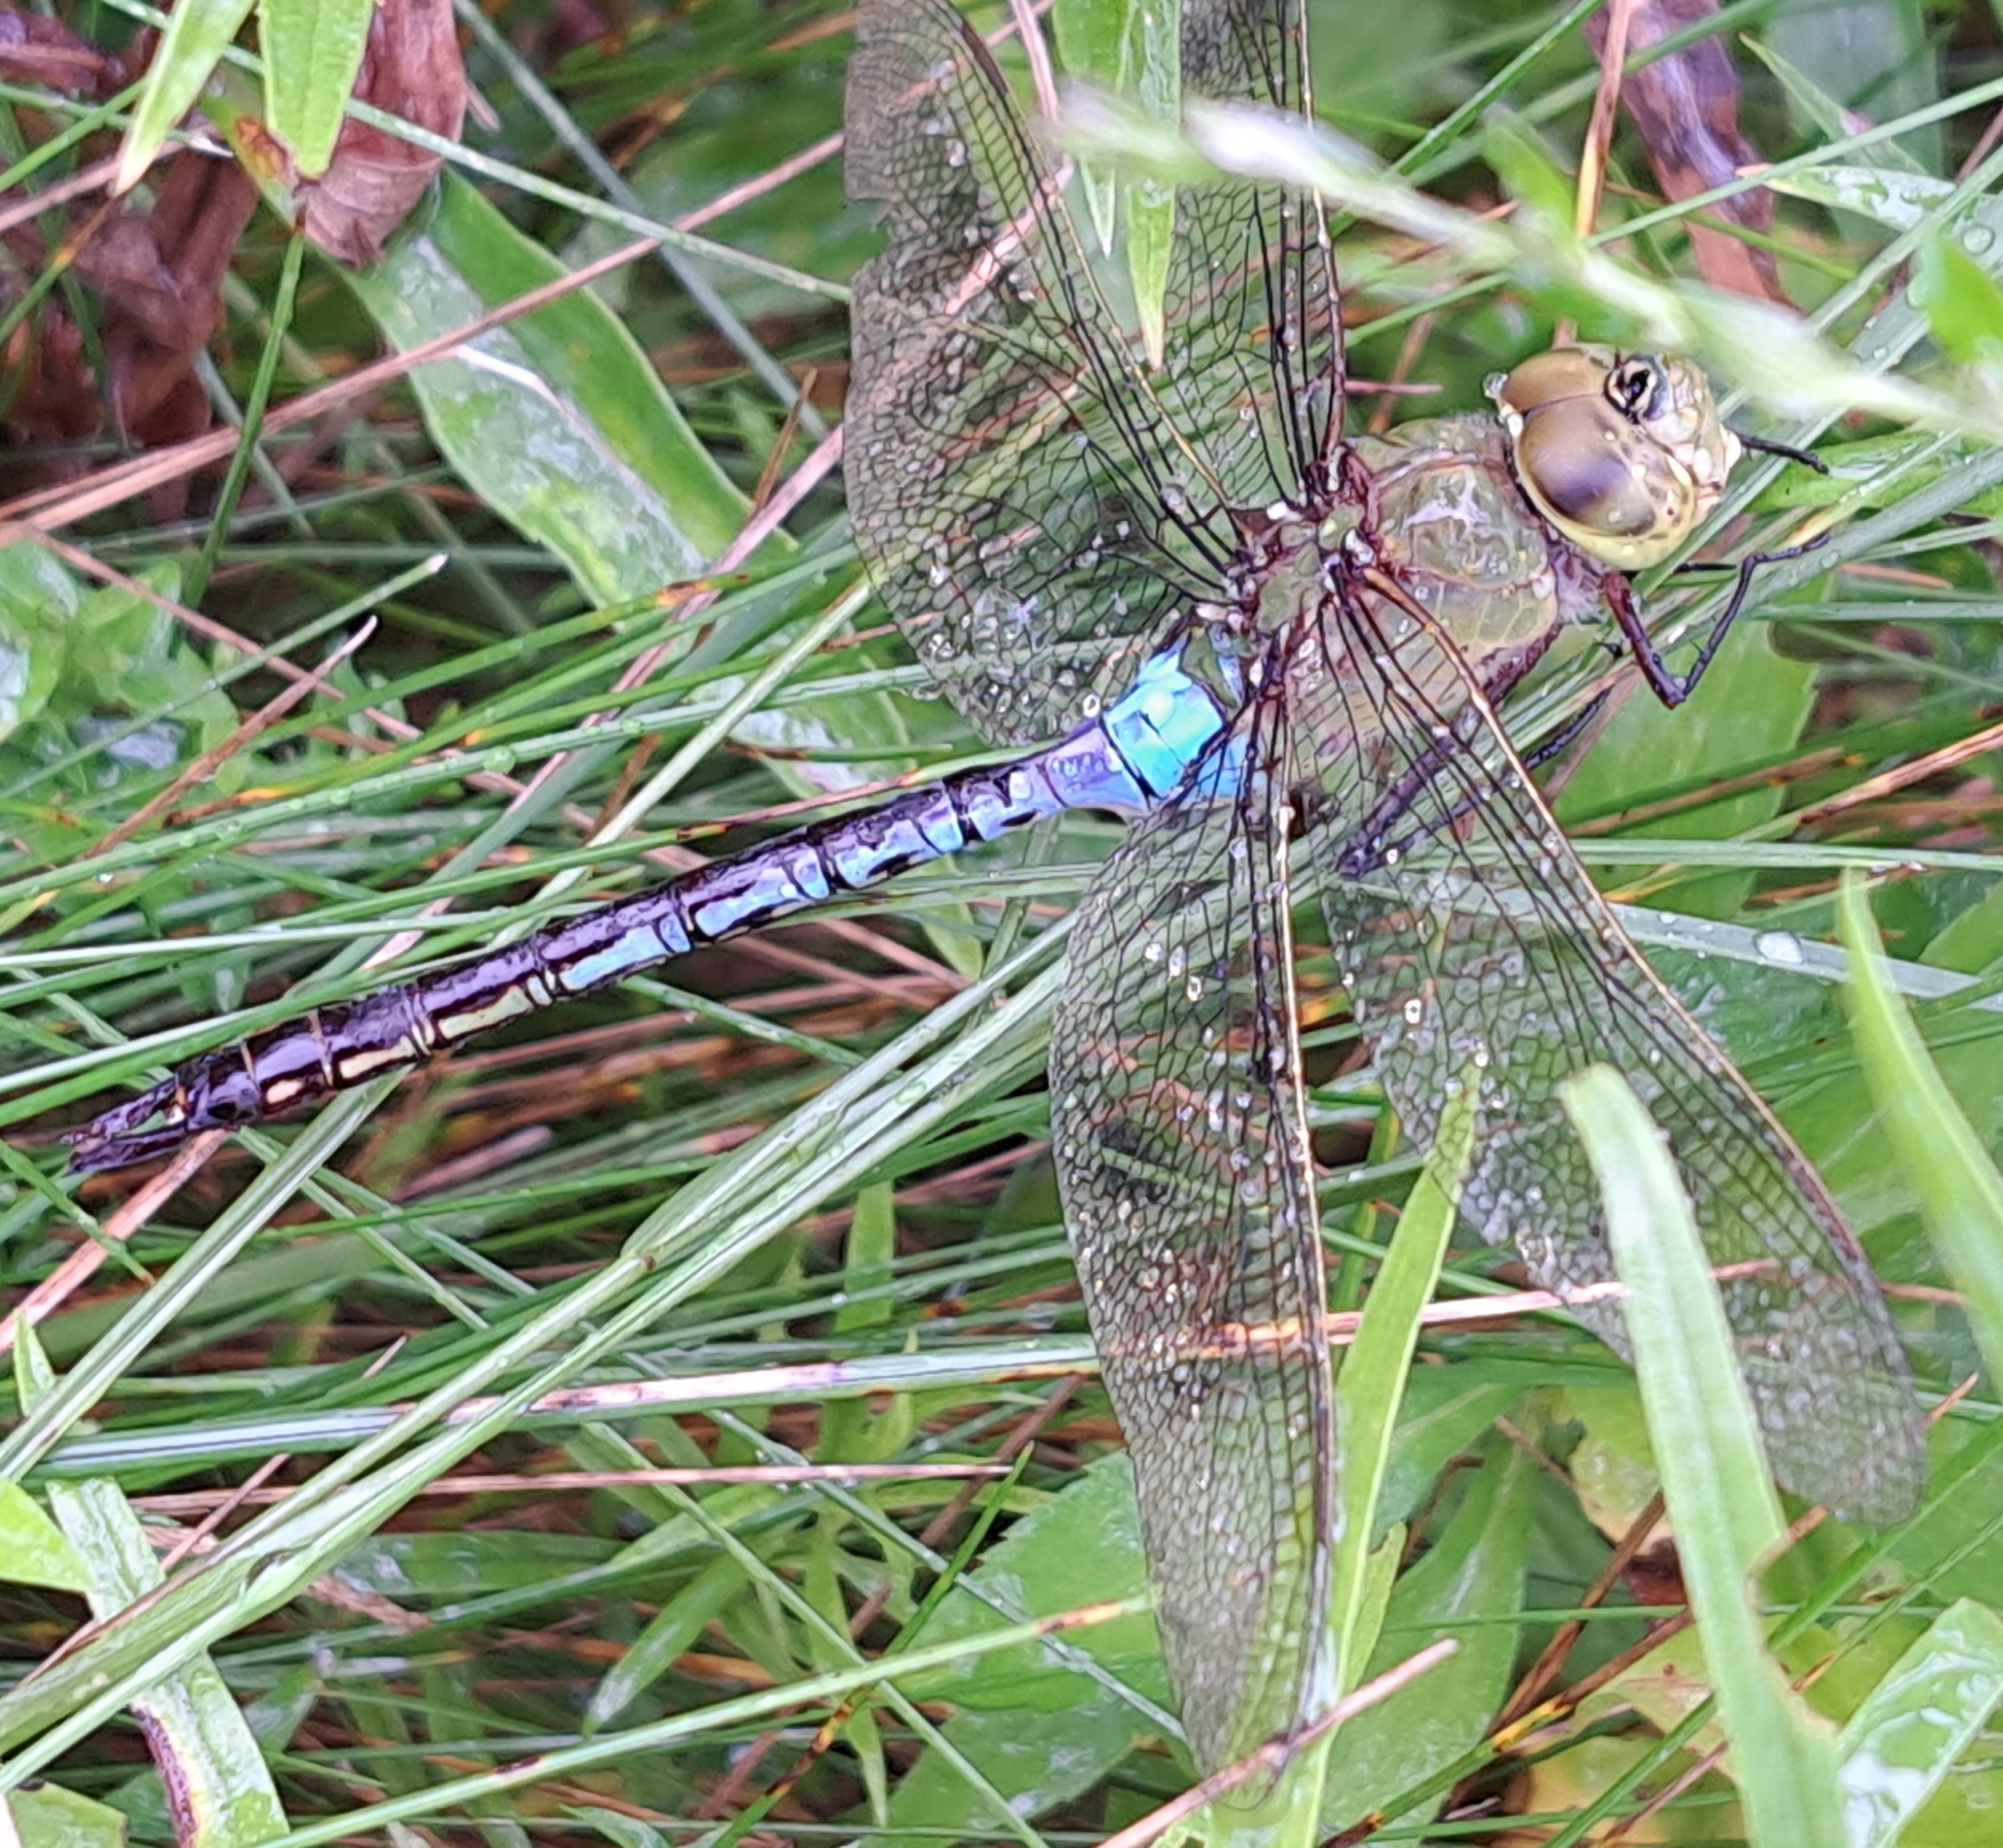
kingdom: Animalia
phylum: Arthropoda
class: Insecta
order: Odonata
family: Aeshnidae
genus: Anax
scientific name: Anax junius
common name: Common green darner
